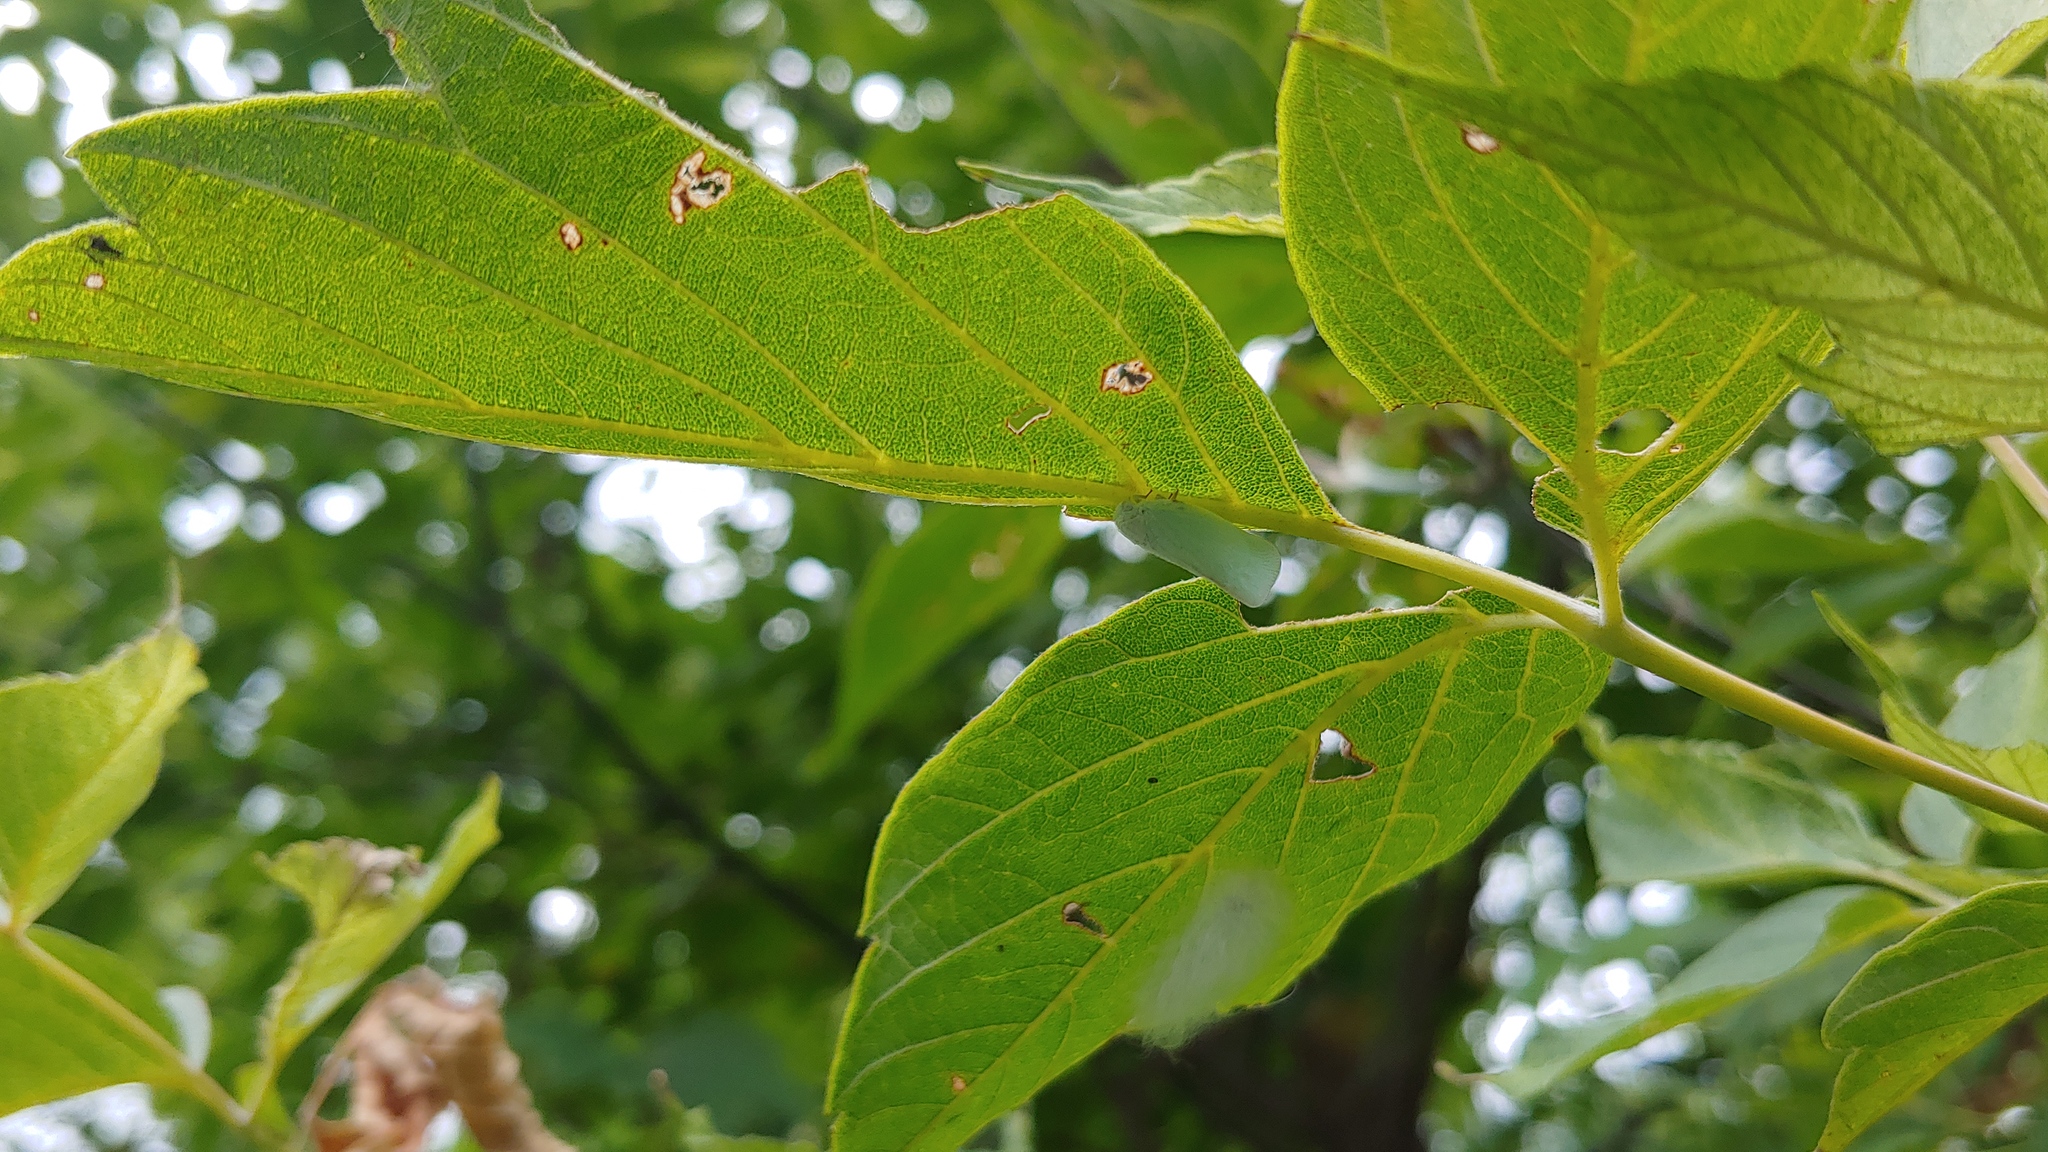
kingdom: Animalia
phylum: Arthropoda
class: Insecta
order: Hemiptera
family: Flatidae
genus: Flatormenis
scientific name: Flatormenis proxima
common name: Northern flatid planthopper
